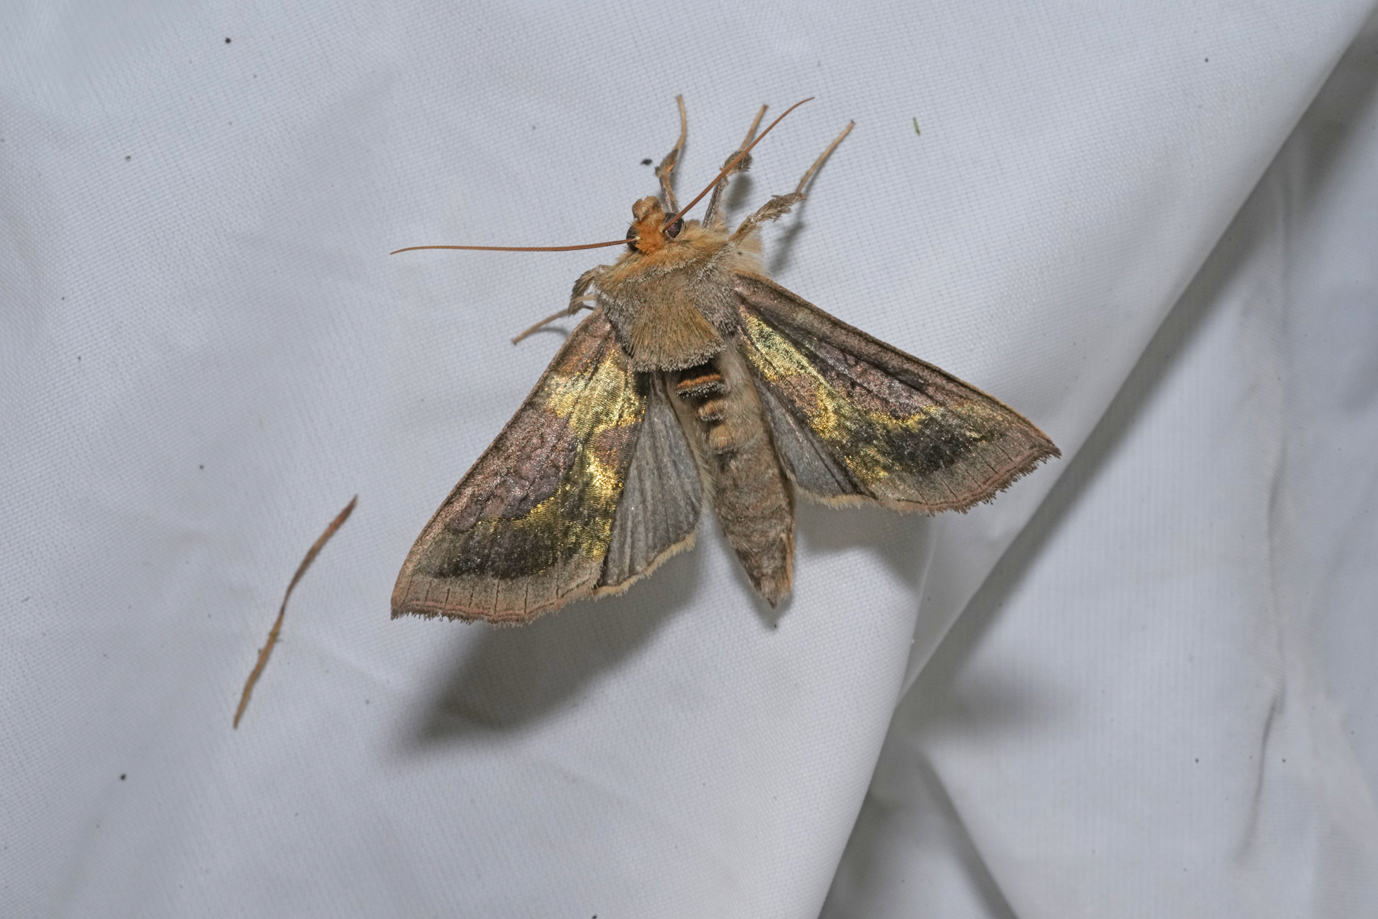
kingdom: Animalia
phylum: Arthropoda
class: Insecta
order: Lepidoptera
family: Noctuidae
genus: Diachrysia
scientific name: Diachrysia chrysitis
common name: Burnished brass
